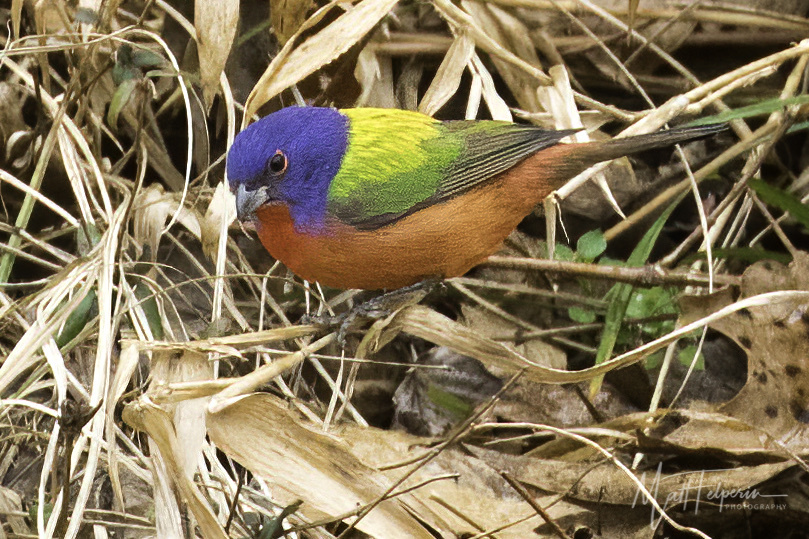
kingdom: Animalia
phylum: Chordata
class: Aves
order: Passeriformes
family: Cardinalidae
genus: Passerina
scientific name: Passerina ciris
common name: Painted bunting
